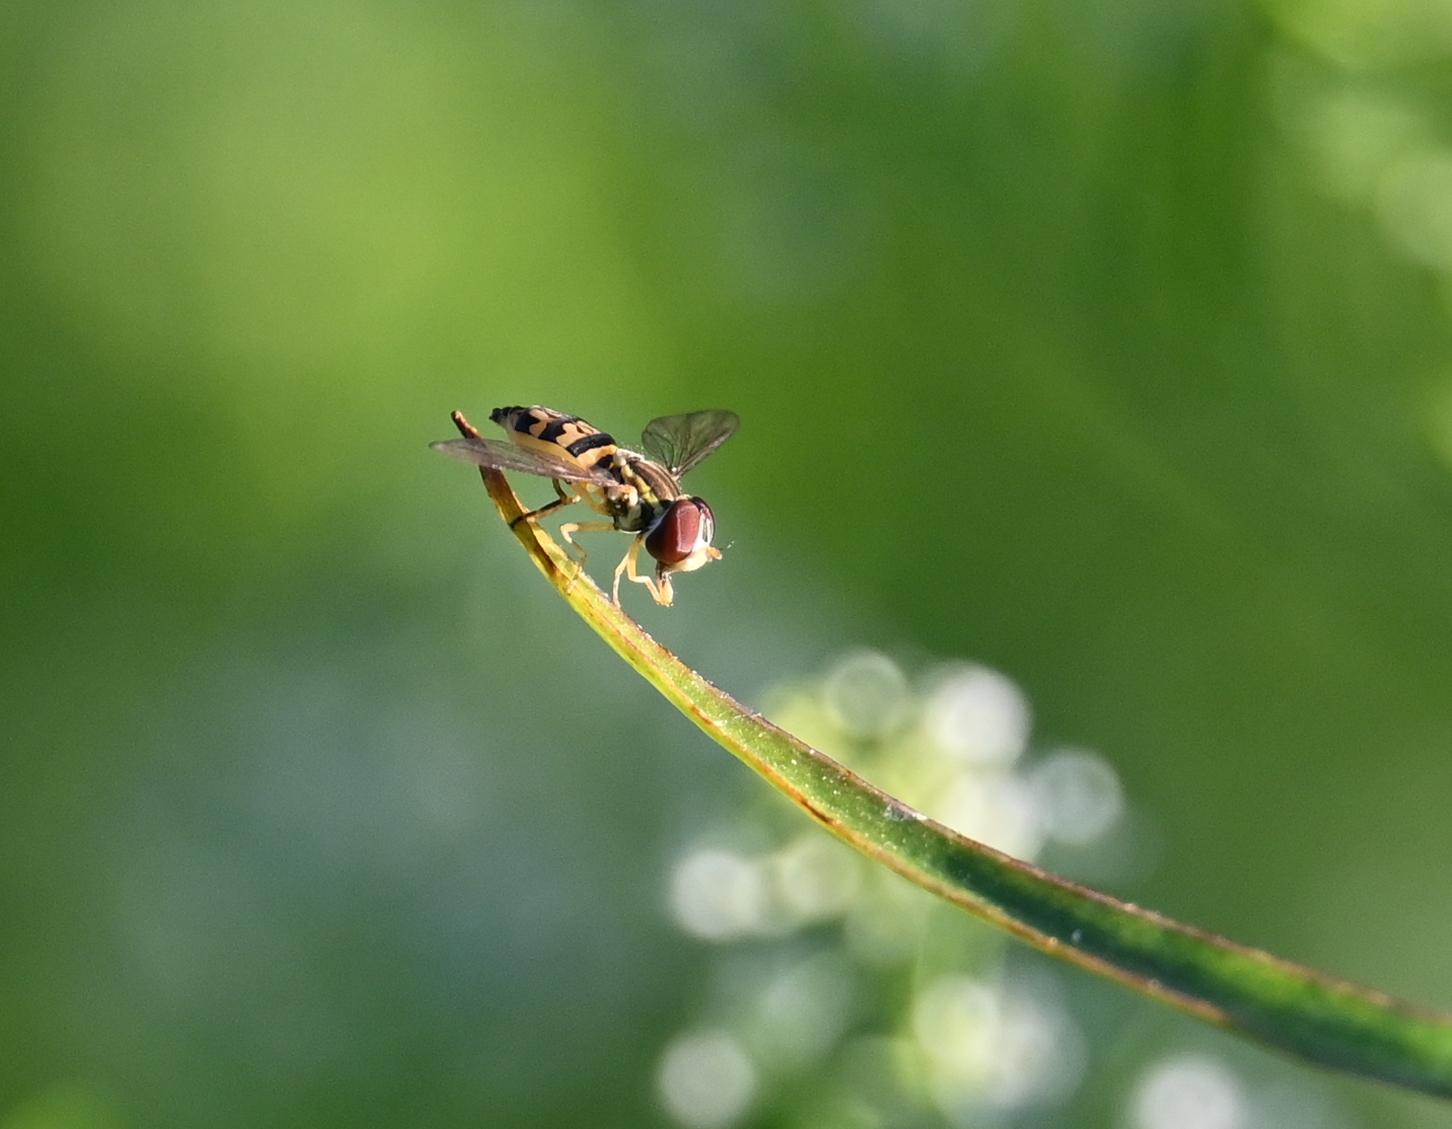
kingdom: Animalia
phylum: Arthropoda
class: Insecta
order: Diptera
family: Syrphidae
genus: Toxomerus
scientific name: Toxomerus geminatus
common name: Eastern calligrapher
